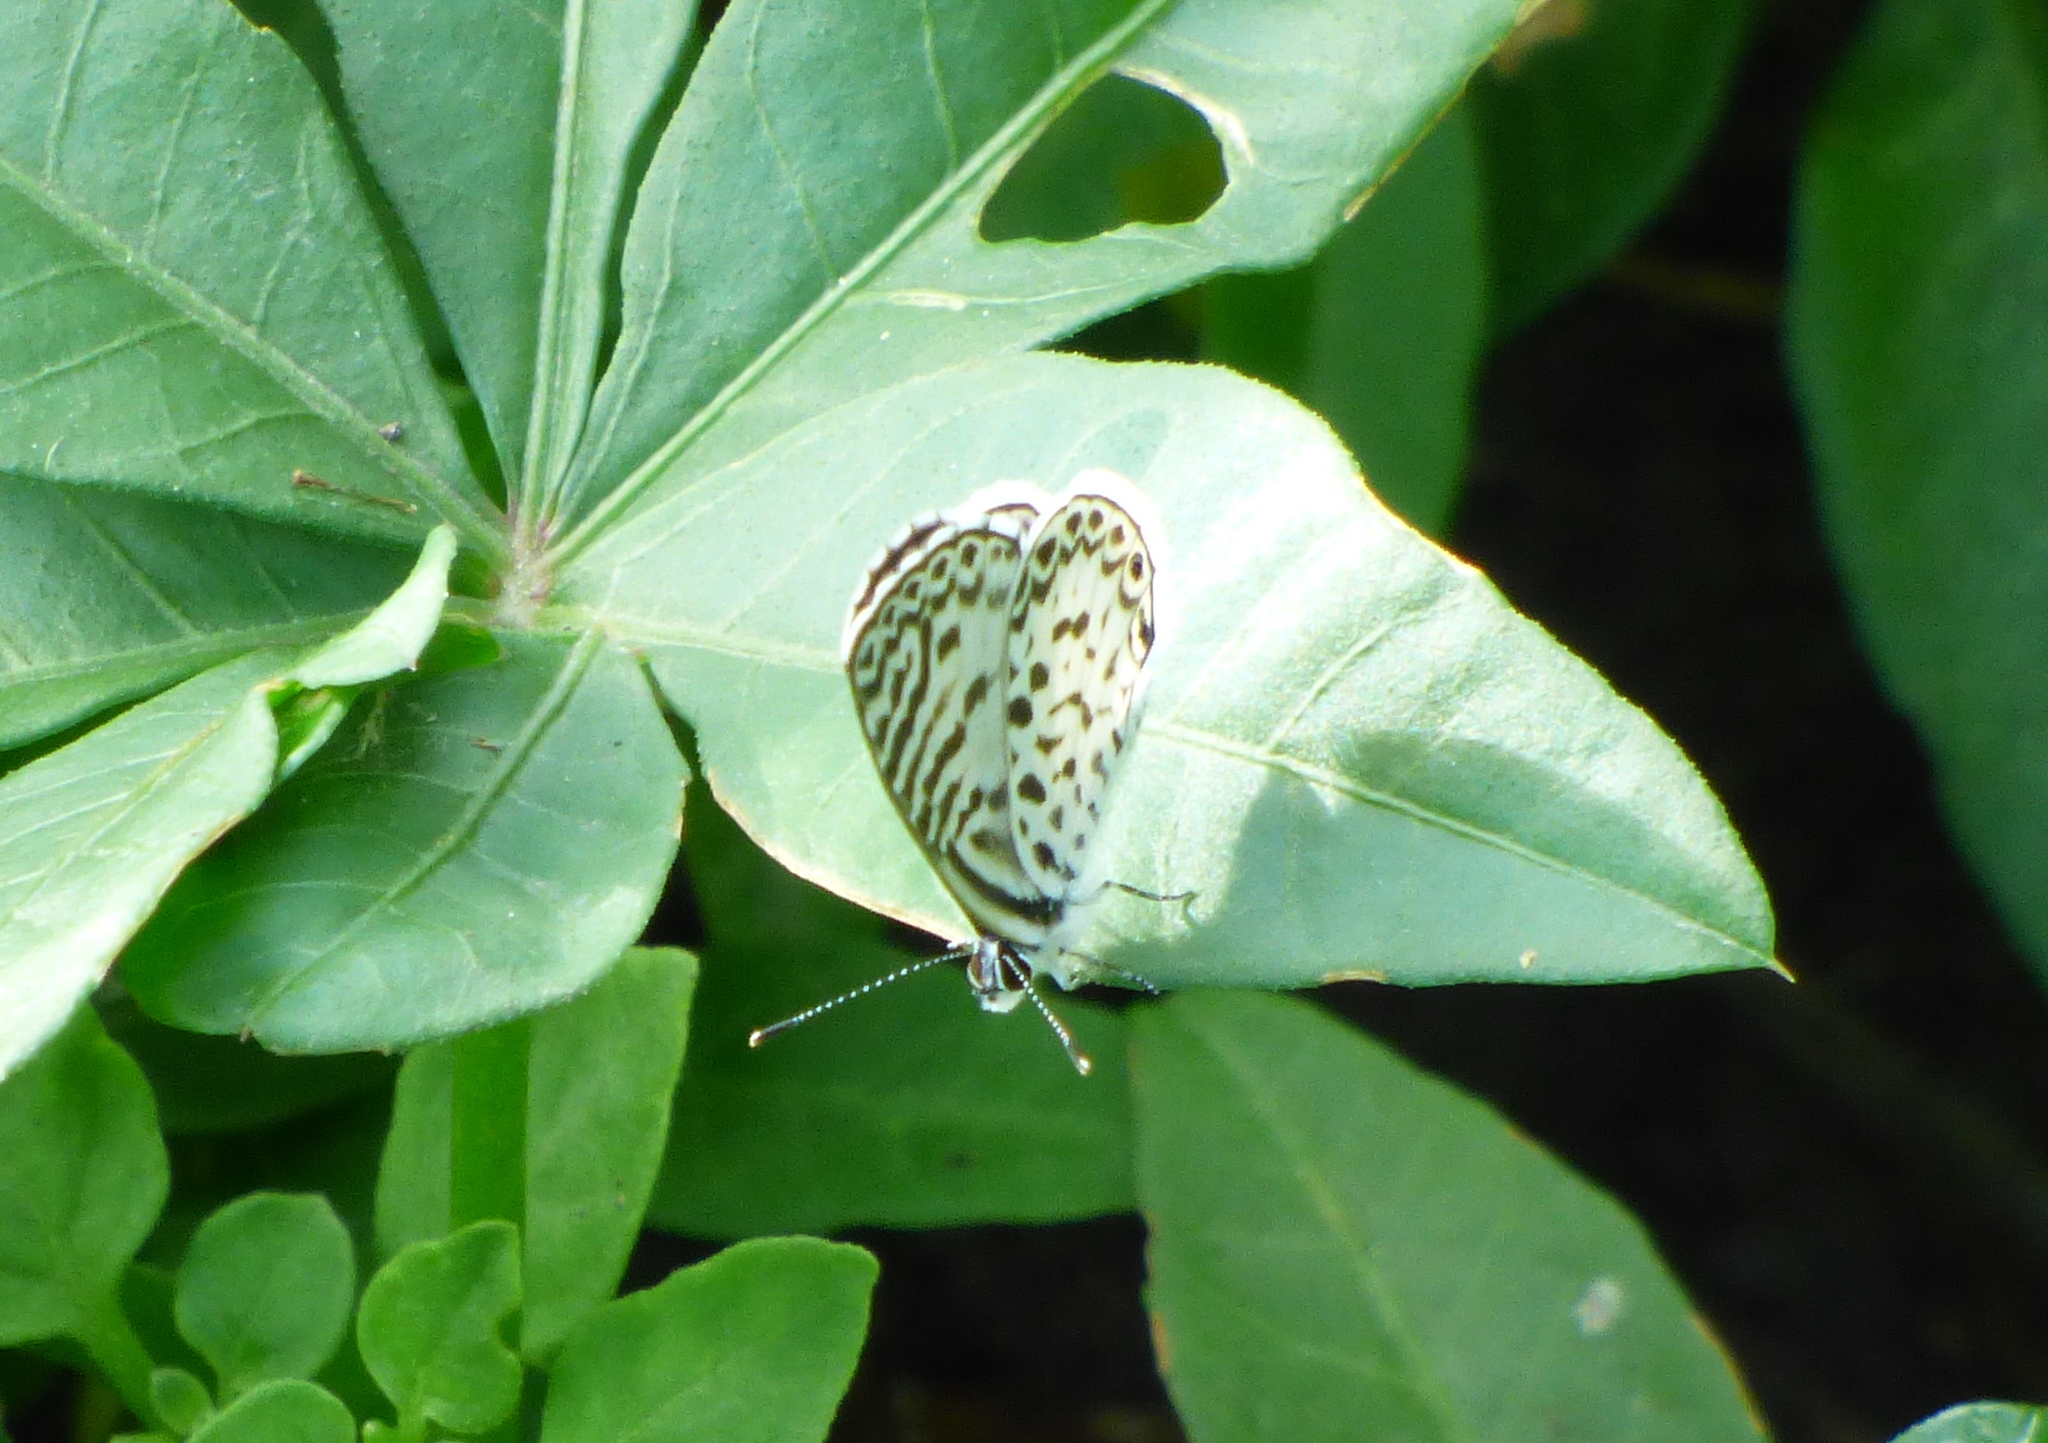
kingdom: Animalia
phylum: Arthropoda
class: Insecta
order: Lepidoptera
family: Lycaenidae
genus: Leptotes
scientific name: Leptotes cassius
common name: Cassius blue
